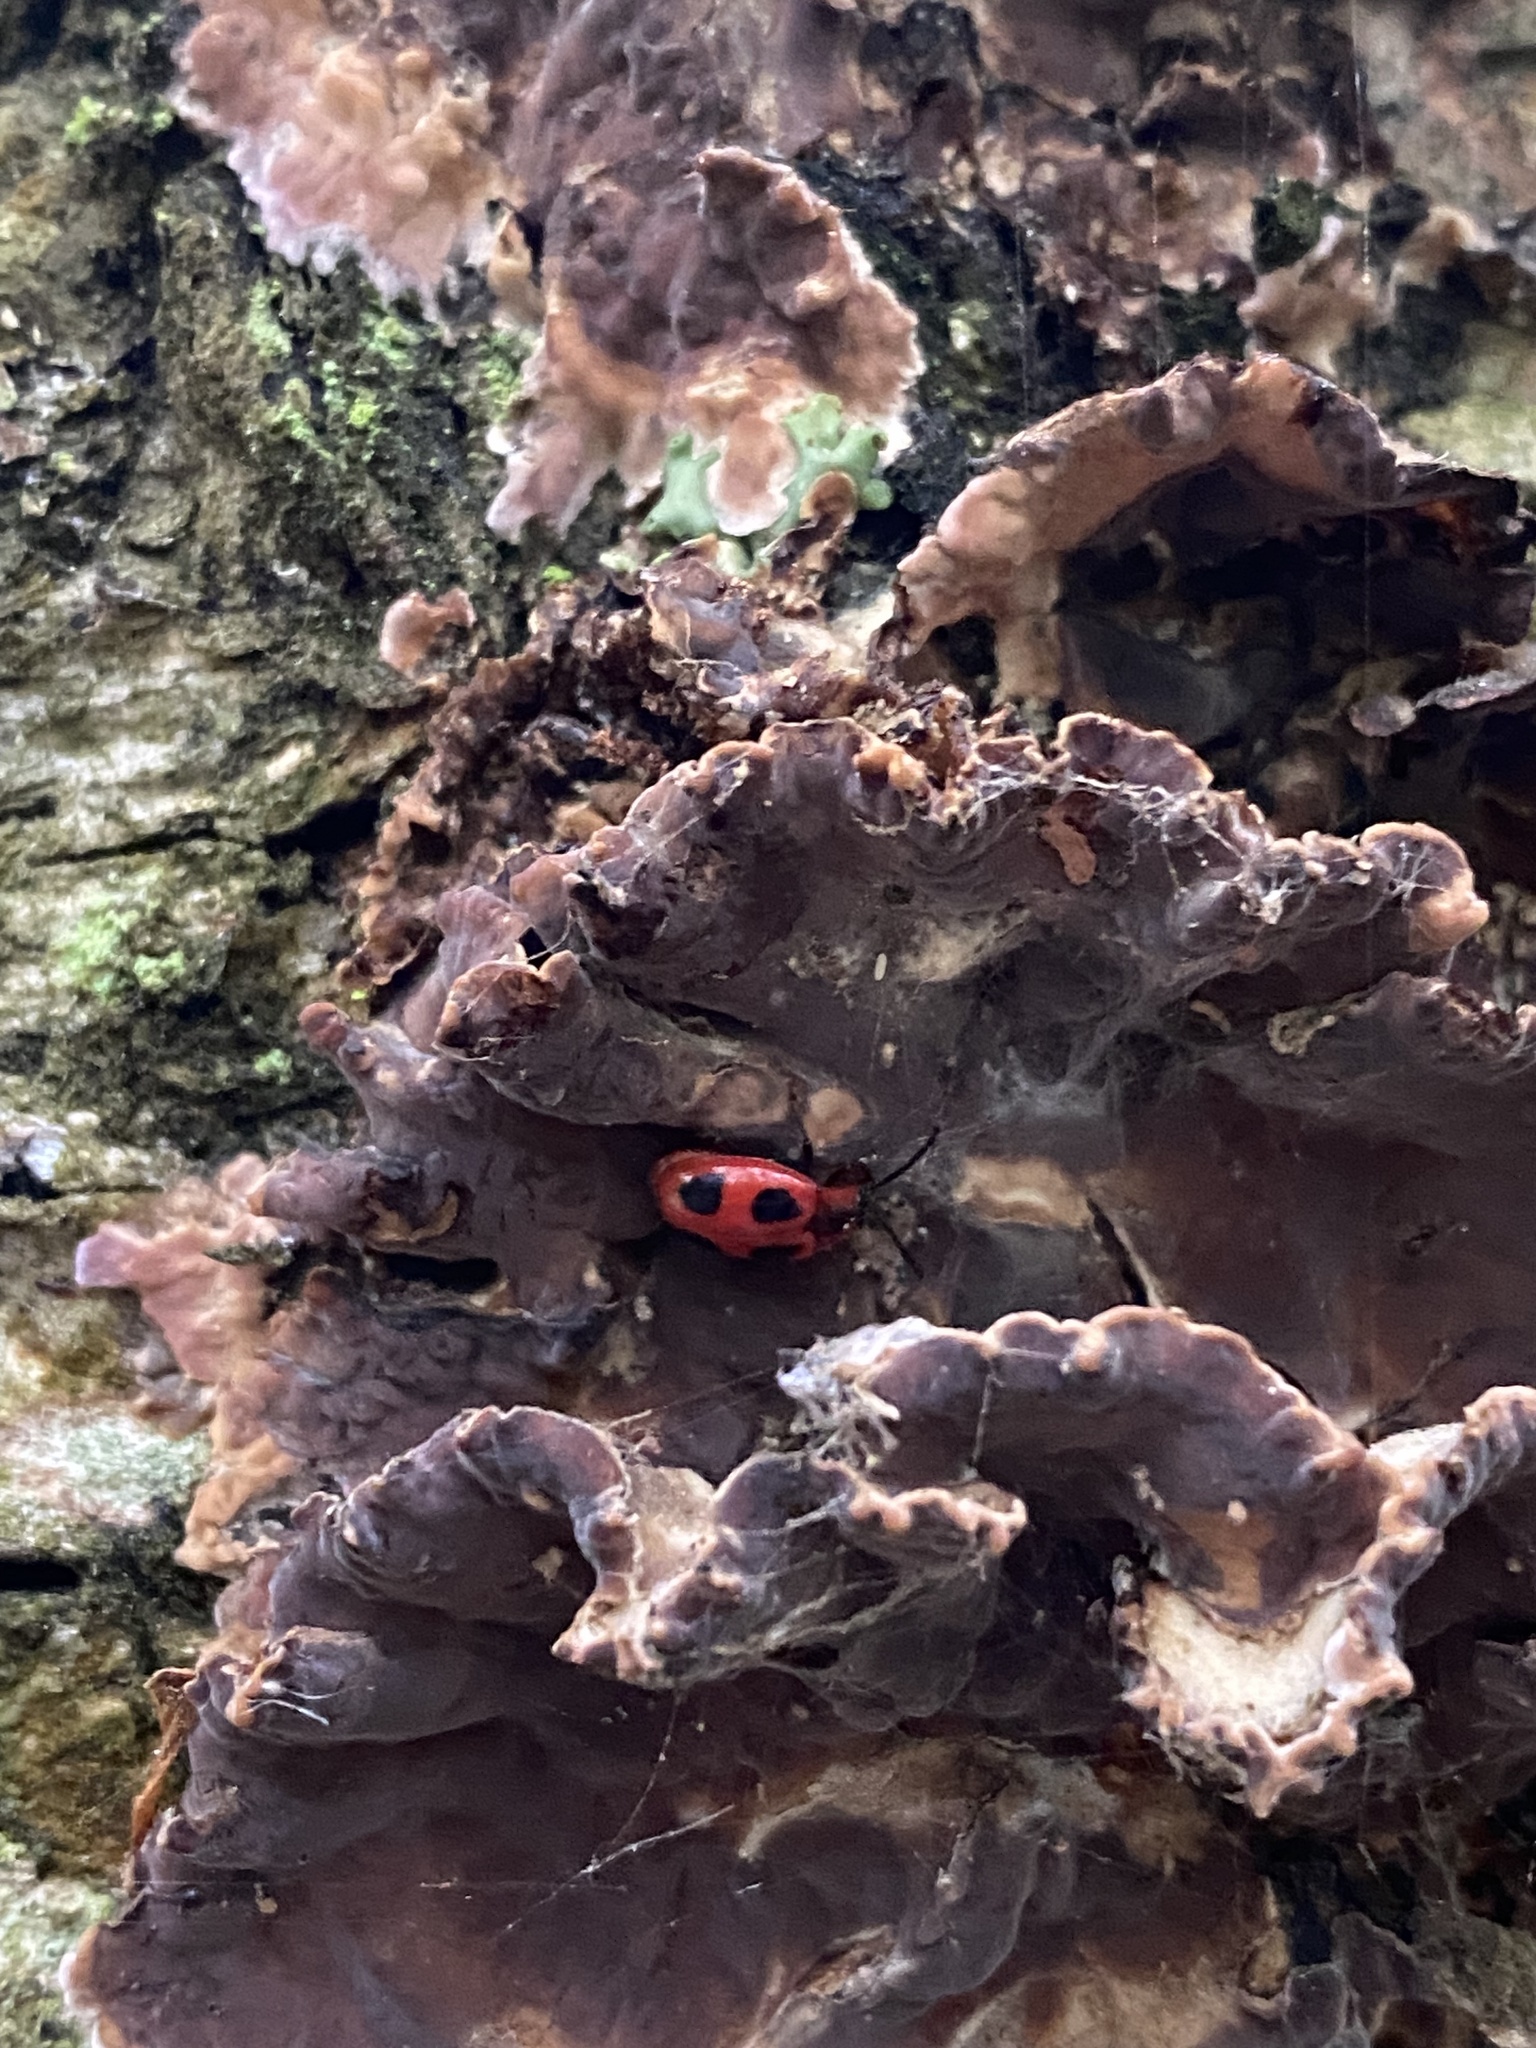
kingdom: Animalia
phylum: Arthropoda
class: Insecta
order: Coleoptera
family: Endomychidae
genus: Endomychus
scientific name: Endomychus coccineus
